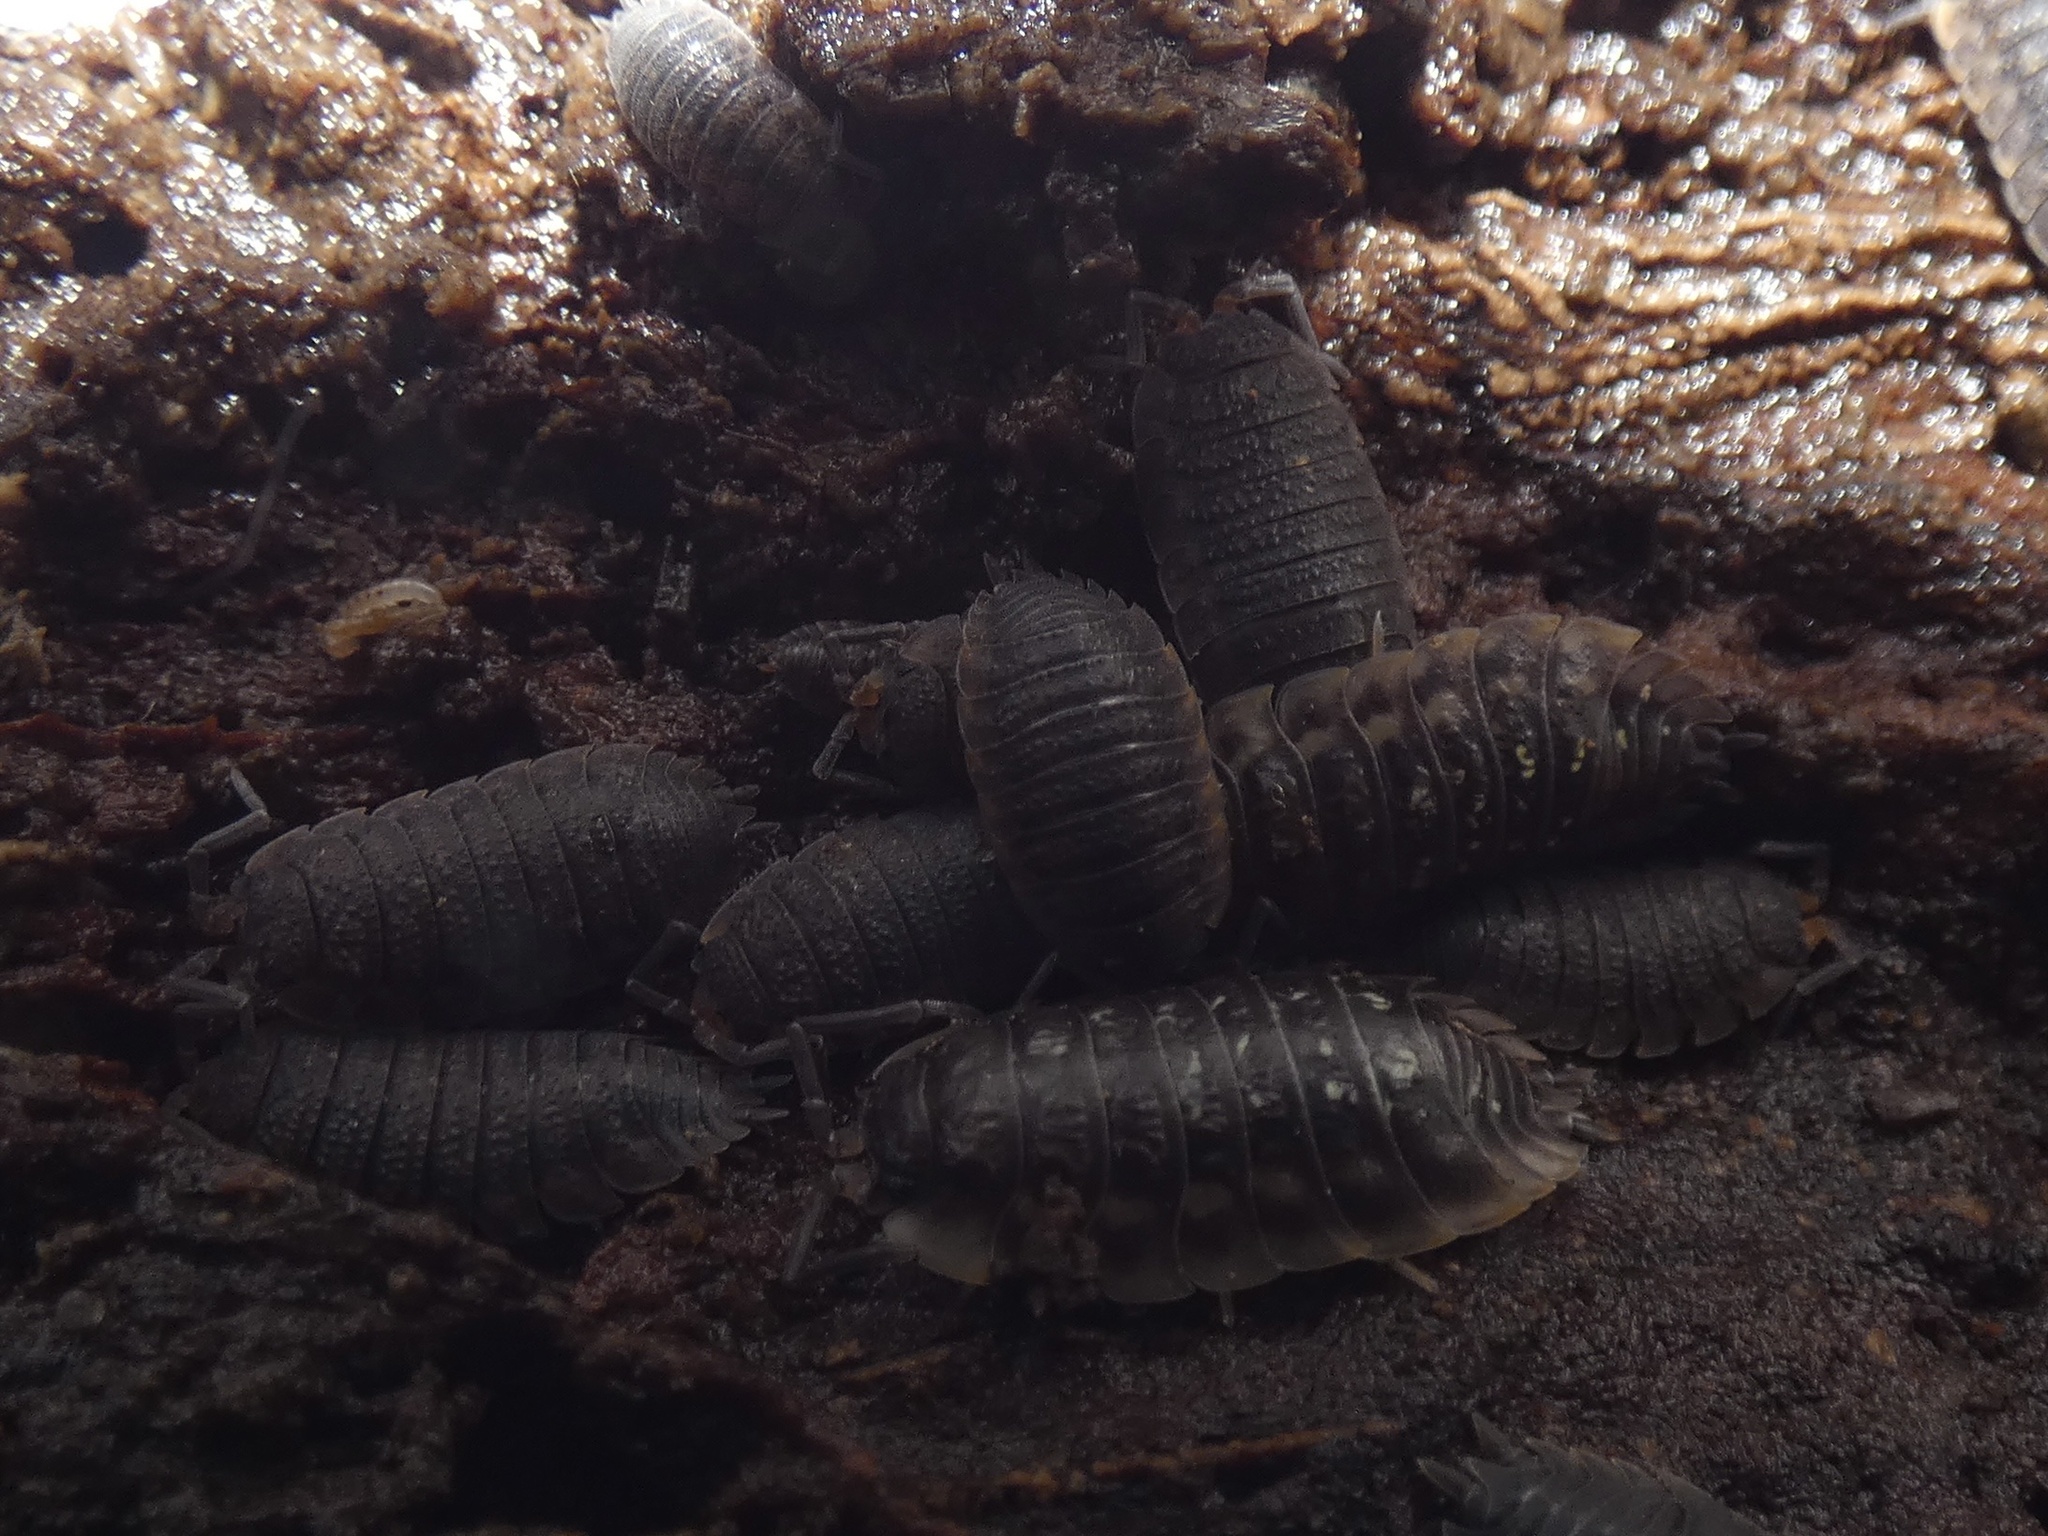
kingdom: Animalia
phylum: Arthropoda
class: Malacostraca
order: Isopoda
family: Porcellionidae
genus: Porcellio
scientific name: Porcellio scaber
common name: Common rough woodlouse
